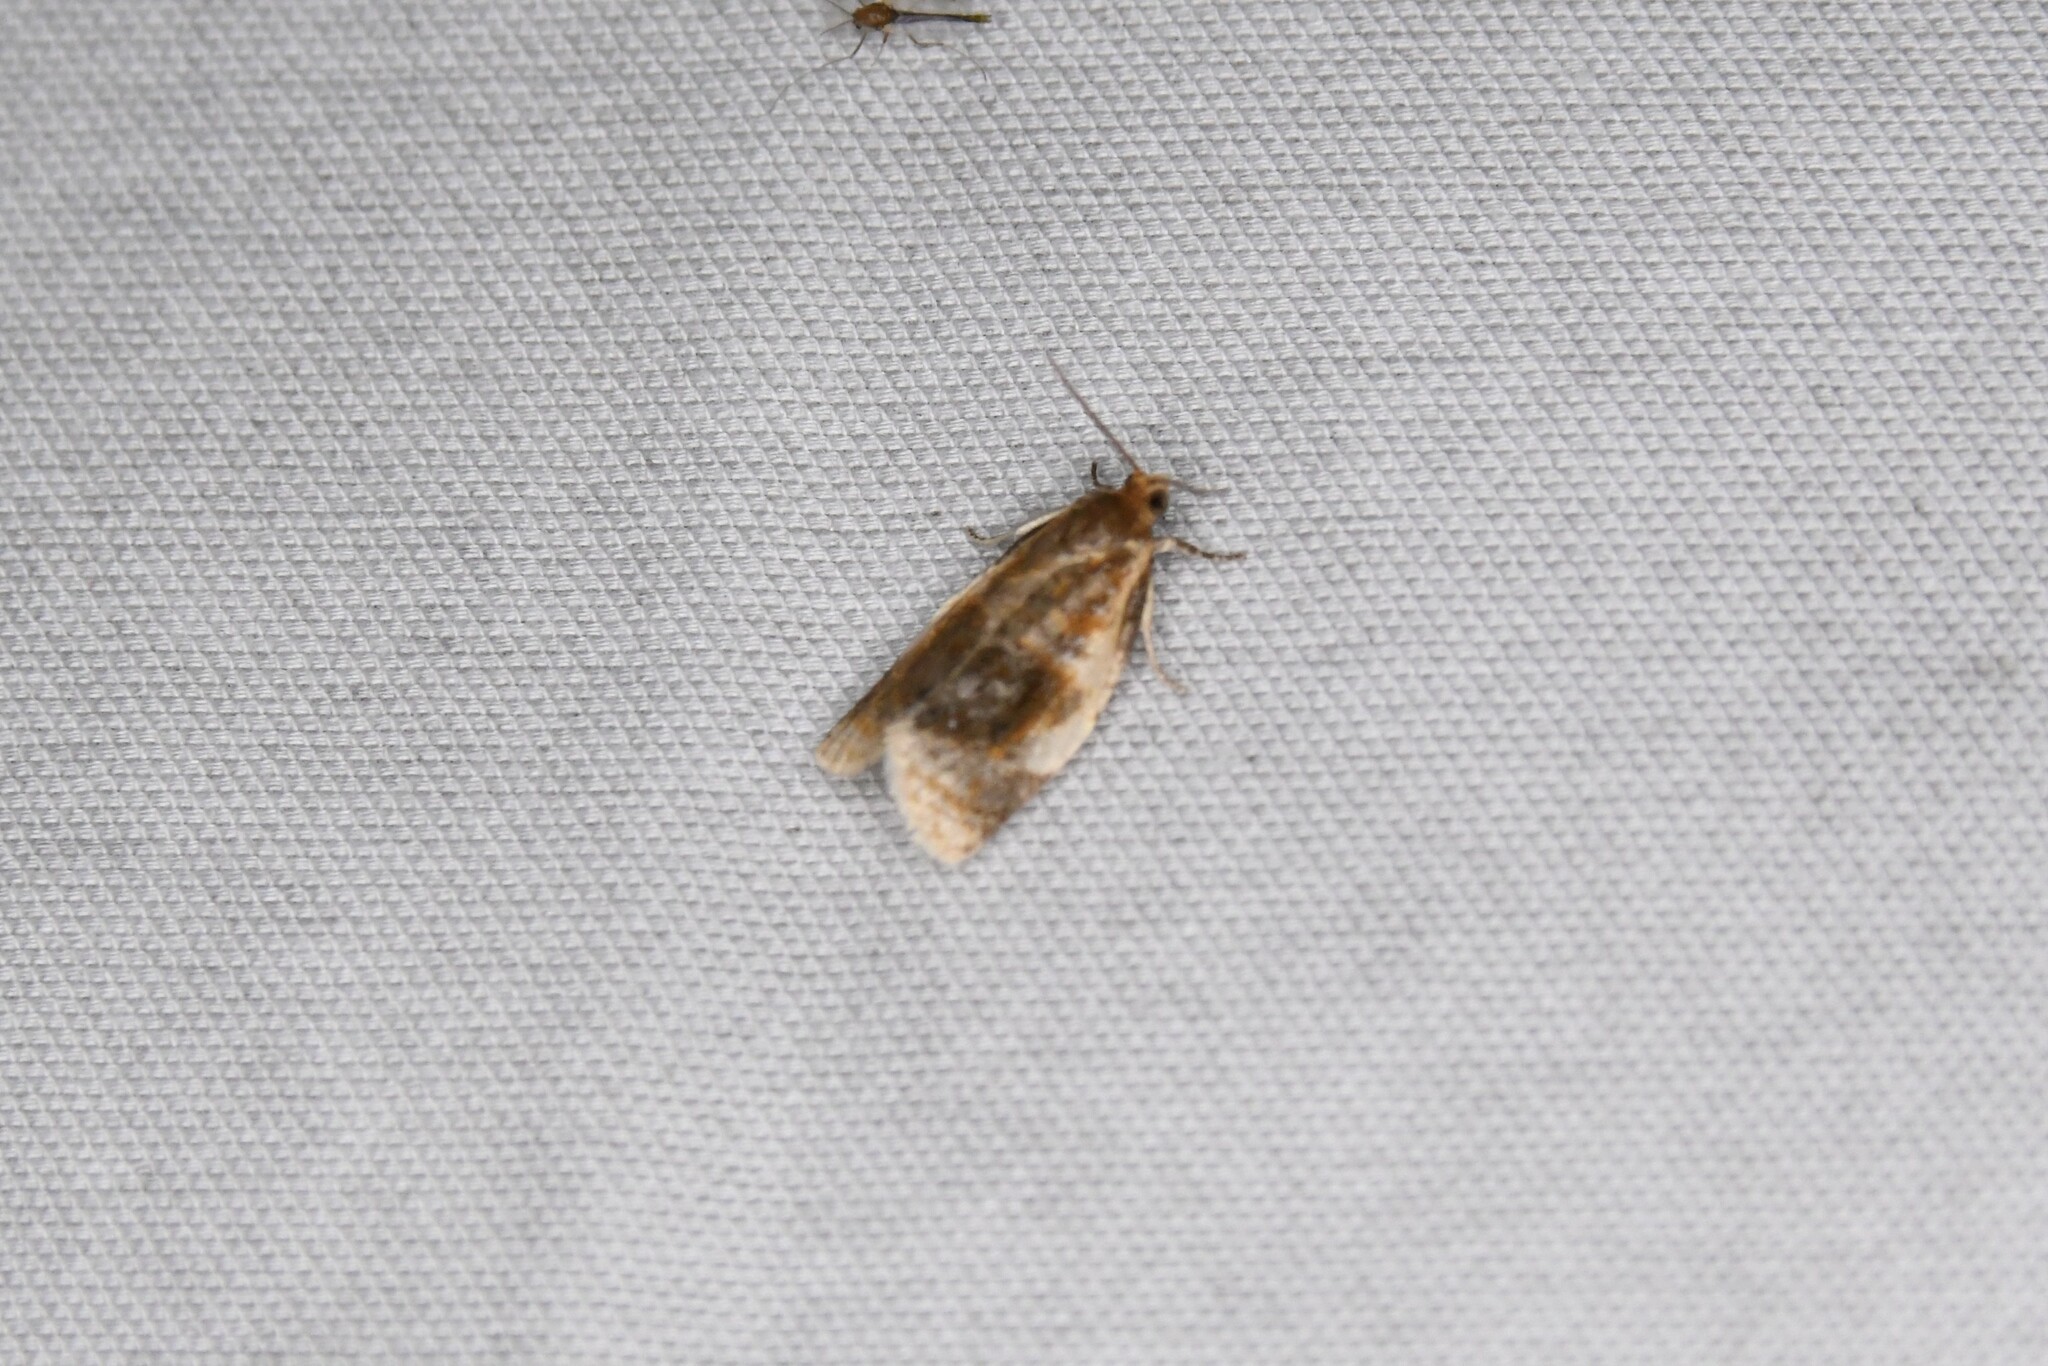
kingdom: Animalia
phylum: Arthropoda
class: Insecta
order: Lepidoptera
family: Tortricidae
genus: Clepsis
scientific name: Clepsis melaleucanus
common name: American apple tortrix
